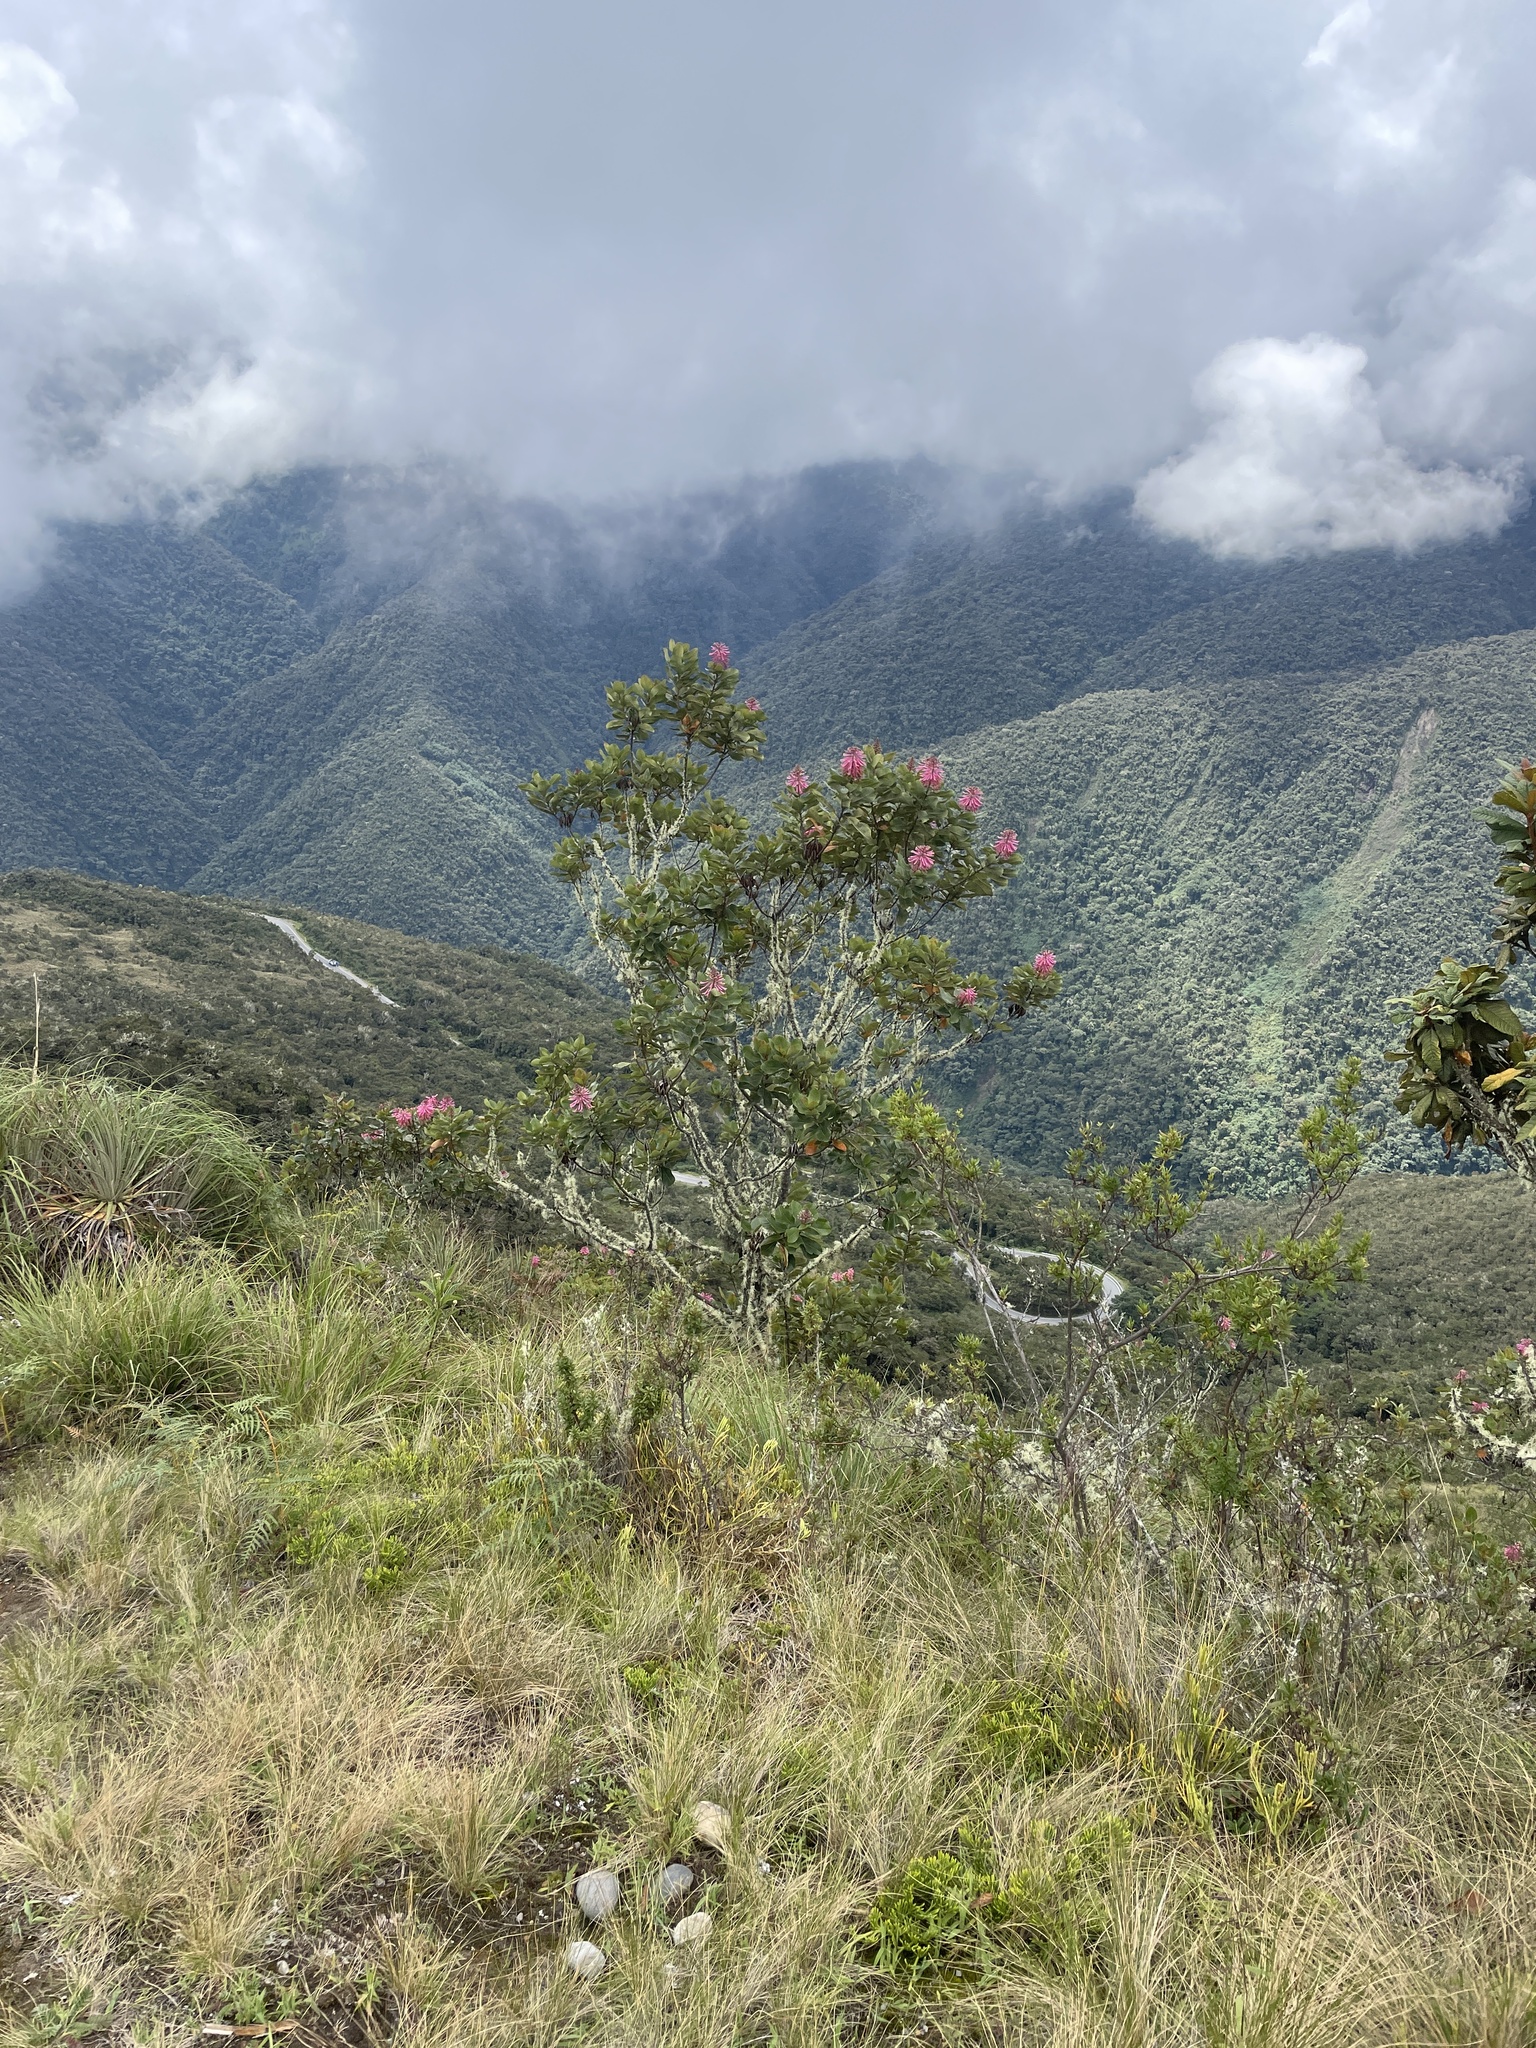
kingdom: Plantae
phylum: Tracheophyta
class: Magnoliopsida
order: Proteales
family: Proteaceae
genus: Oreocallis
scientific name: Oreocallis grandiflora
